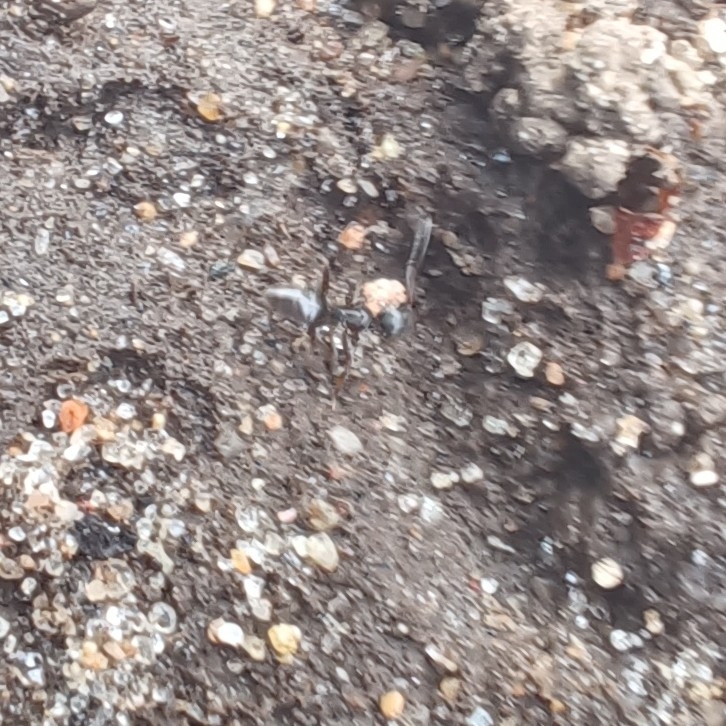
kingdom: Animalia
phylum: Arthropoda
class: Insecta
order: Hymenoptera
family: Formicidae
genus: Tapinoma
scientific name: Tapinoma sessile
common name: Odorous house ant
